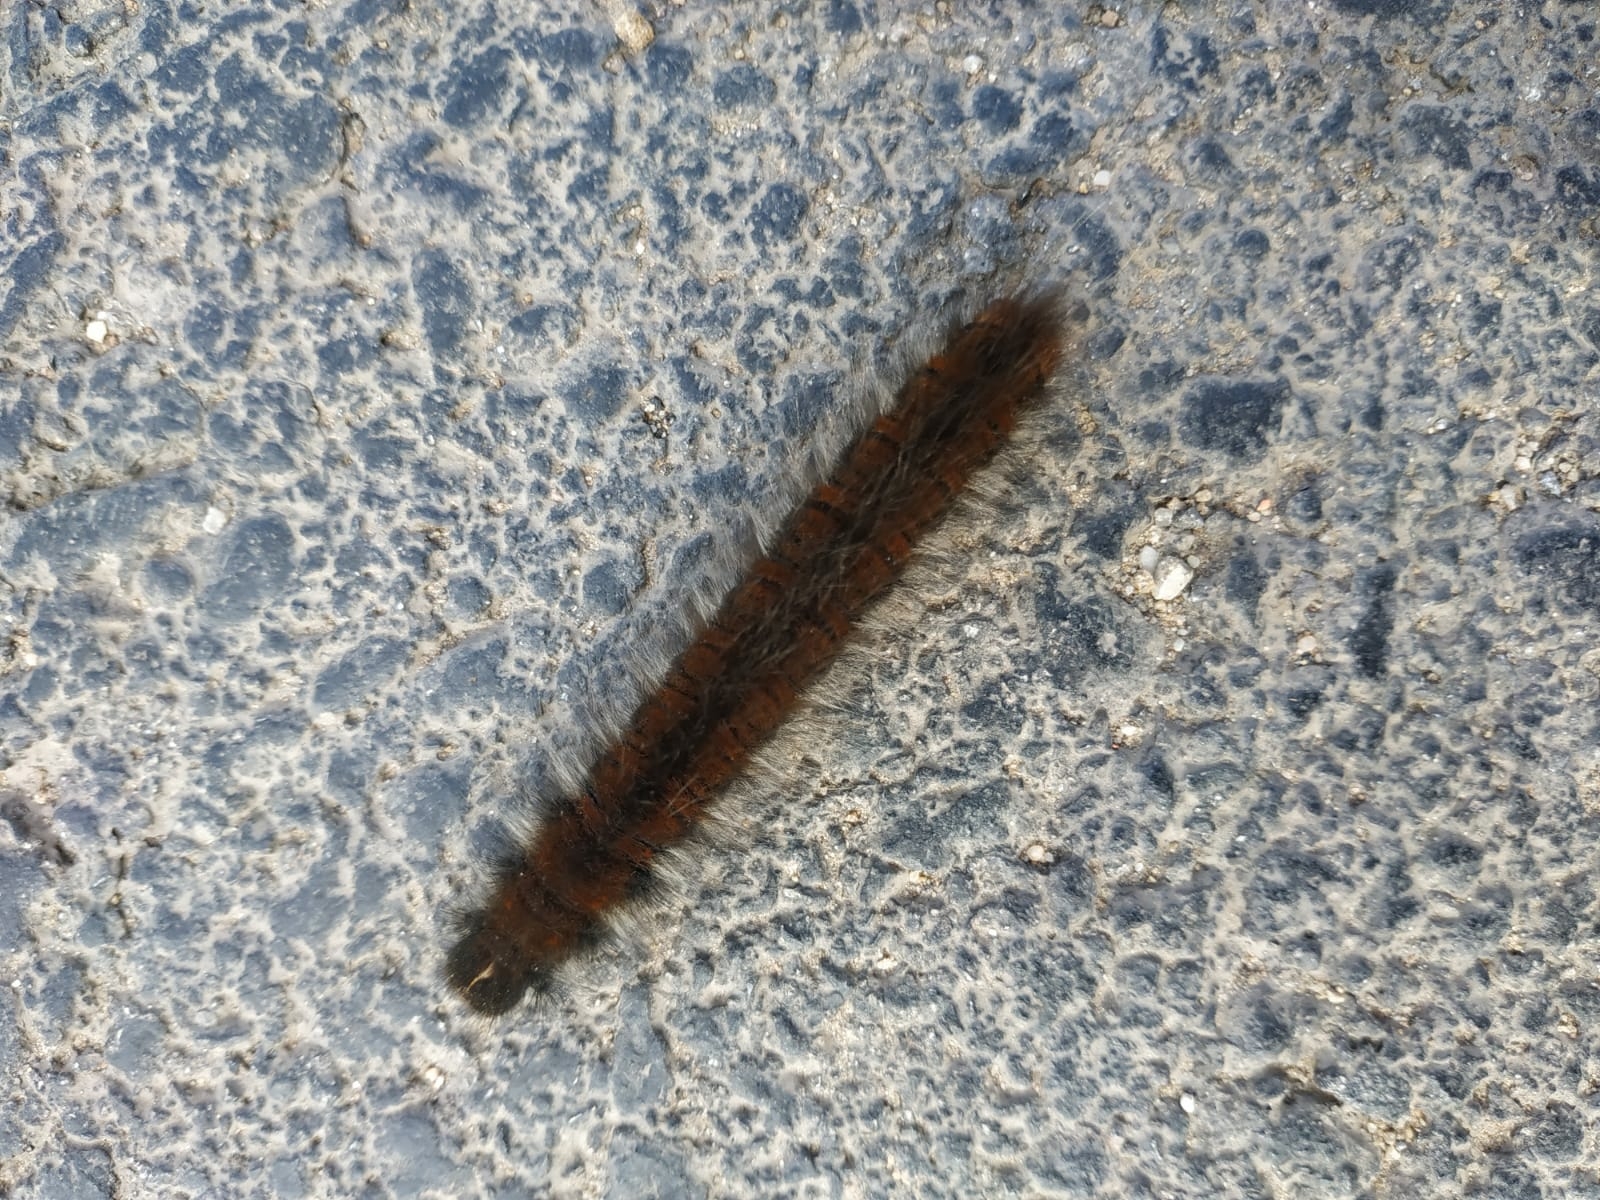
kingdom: Animalia
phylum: Arthropoda
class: Insecta
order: Lepidoptera
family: Lasiocampidae
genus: Macrothylacia
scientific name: Macrothylacia rubi
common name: Fox moth
